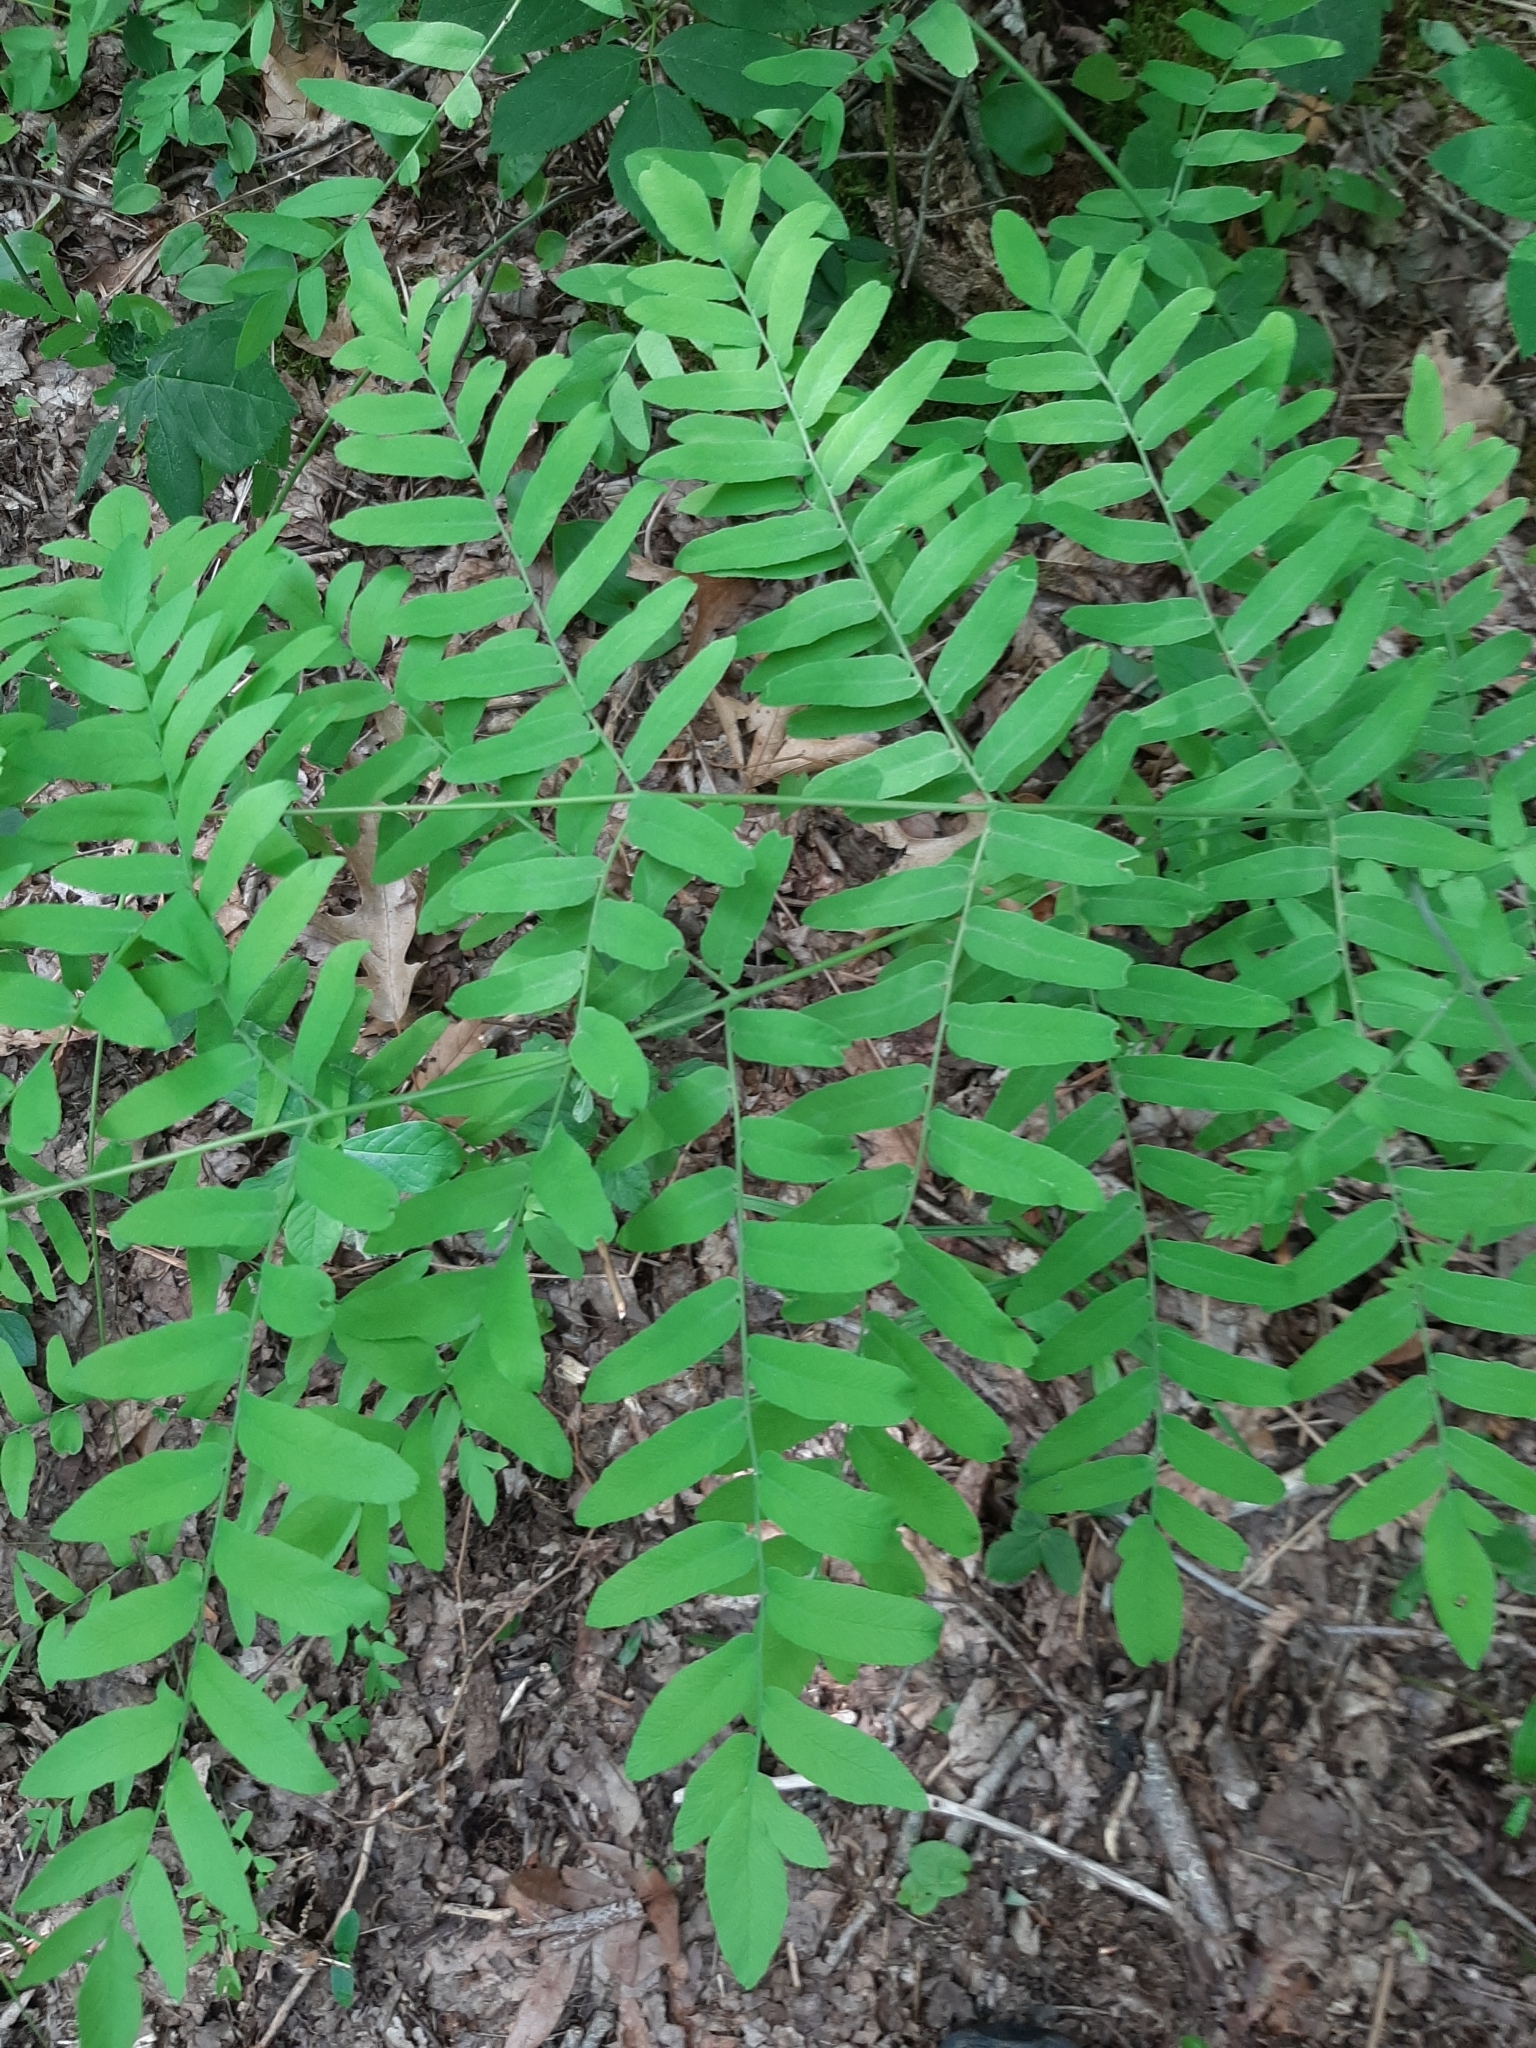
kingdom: Plantae
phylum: Tracheophyta
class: Polypodiopsida
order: Osmundales
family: Osmundaceae
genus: Osmunda
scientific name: Osmunda spectabilis
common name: American royal fern
